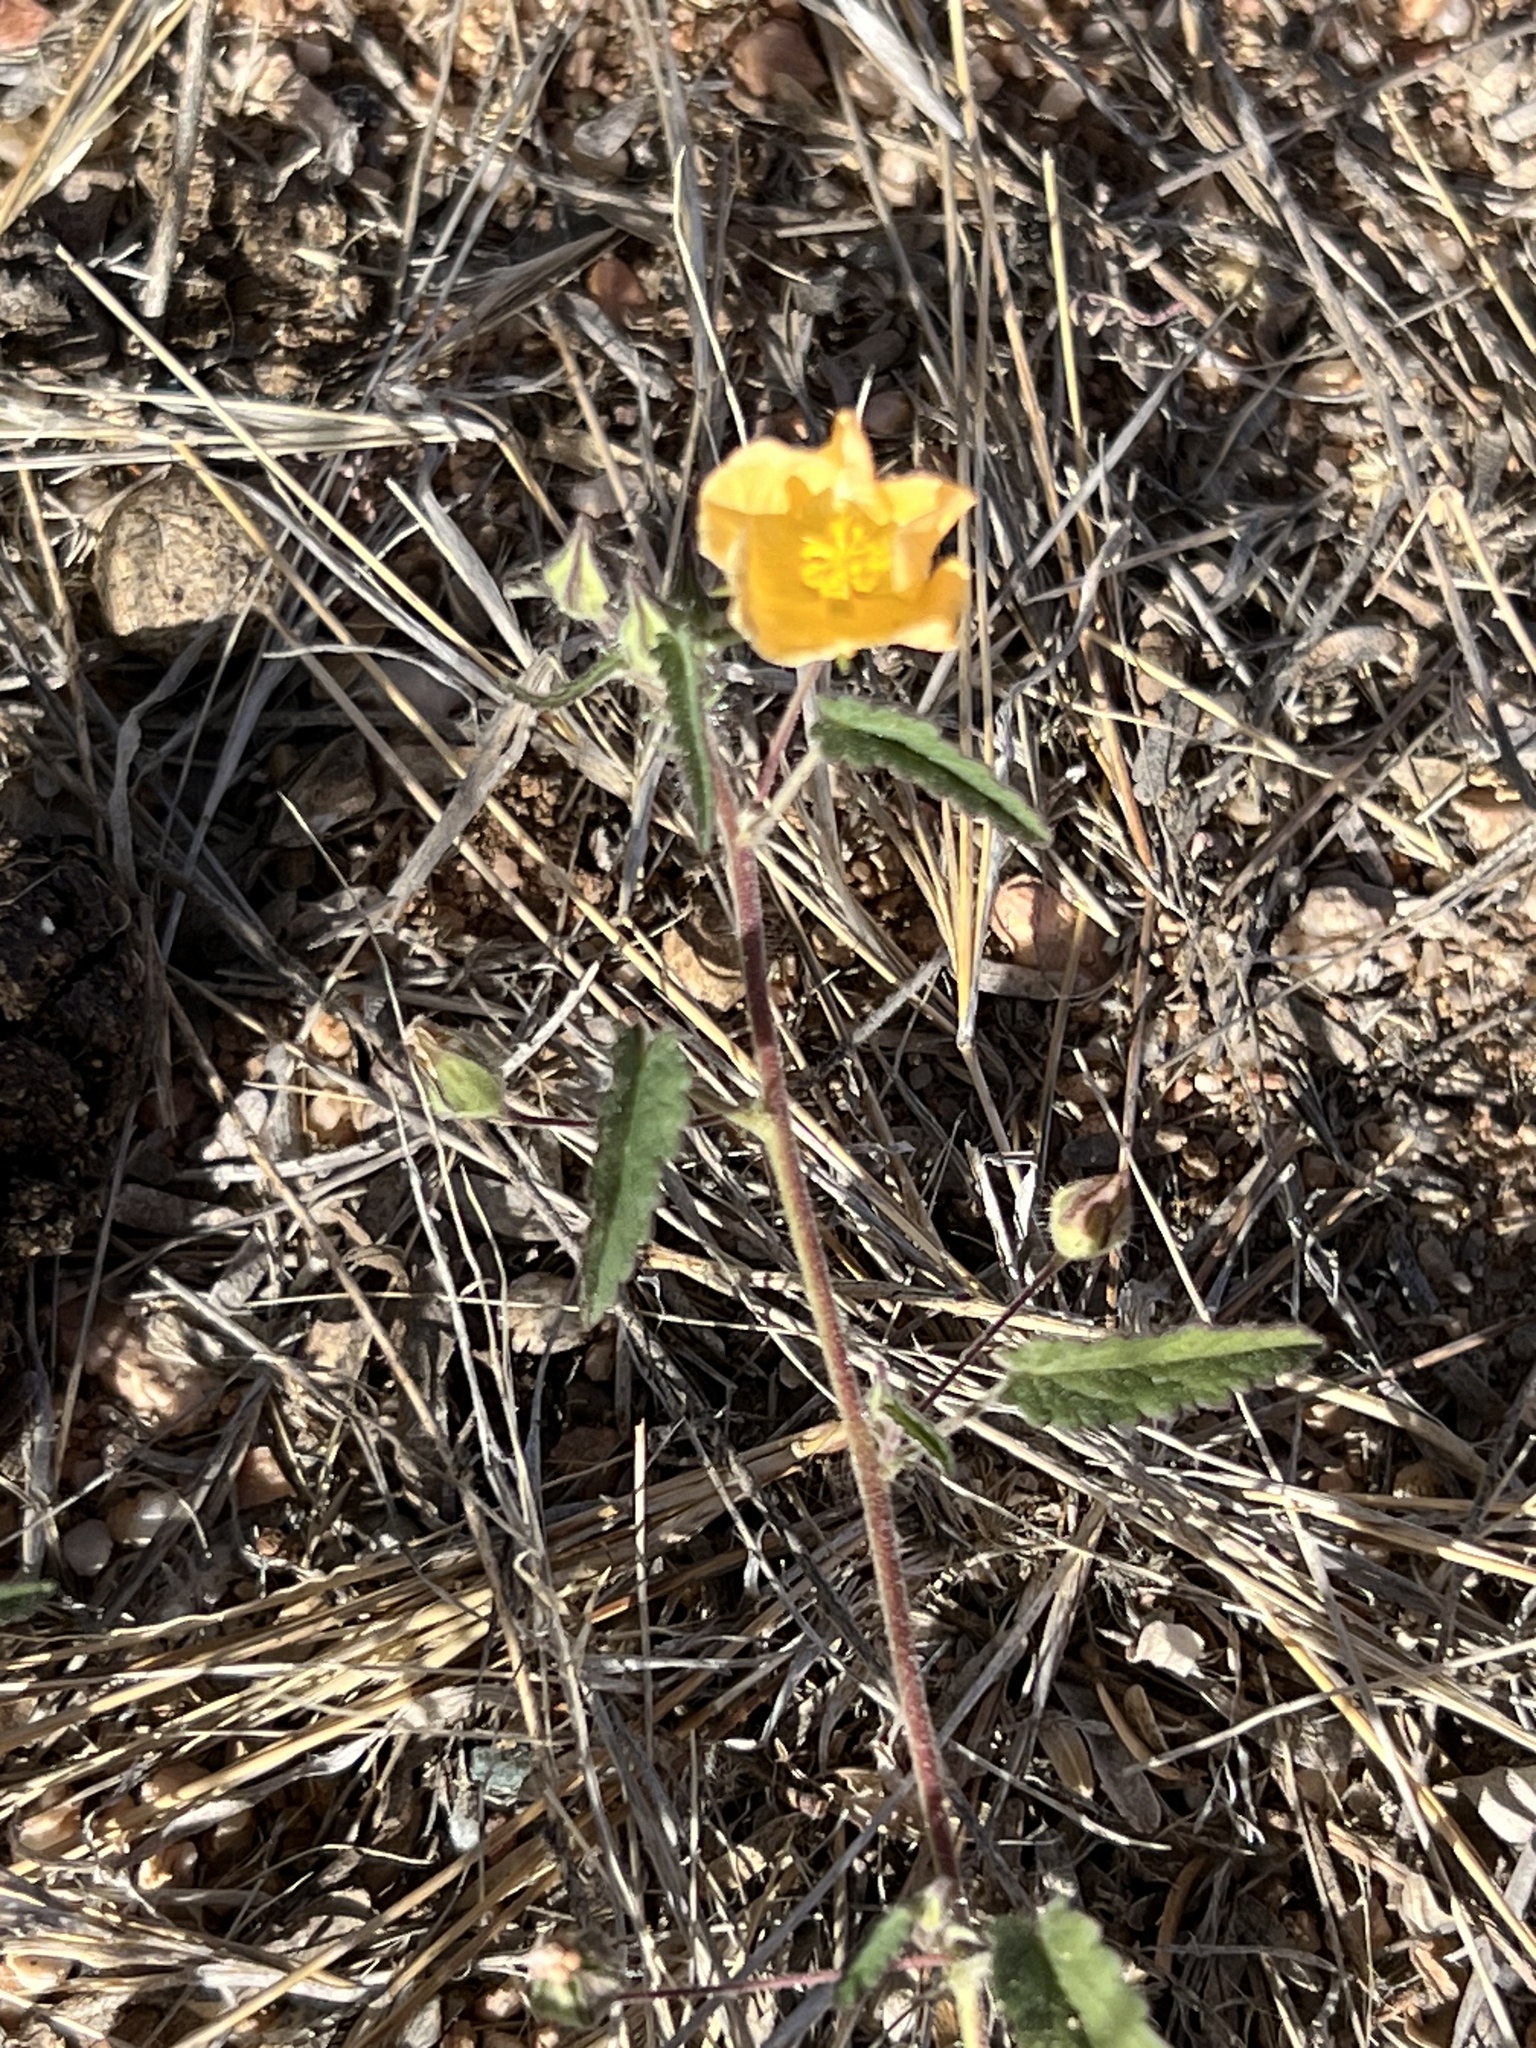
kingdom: Plantae
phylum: Tracheophyta
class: Magnoliopsida
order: Malvales
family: Malvaceae
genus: Sida
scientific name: Sida abutilifolia
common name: Spreading fanpetals
